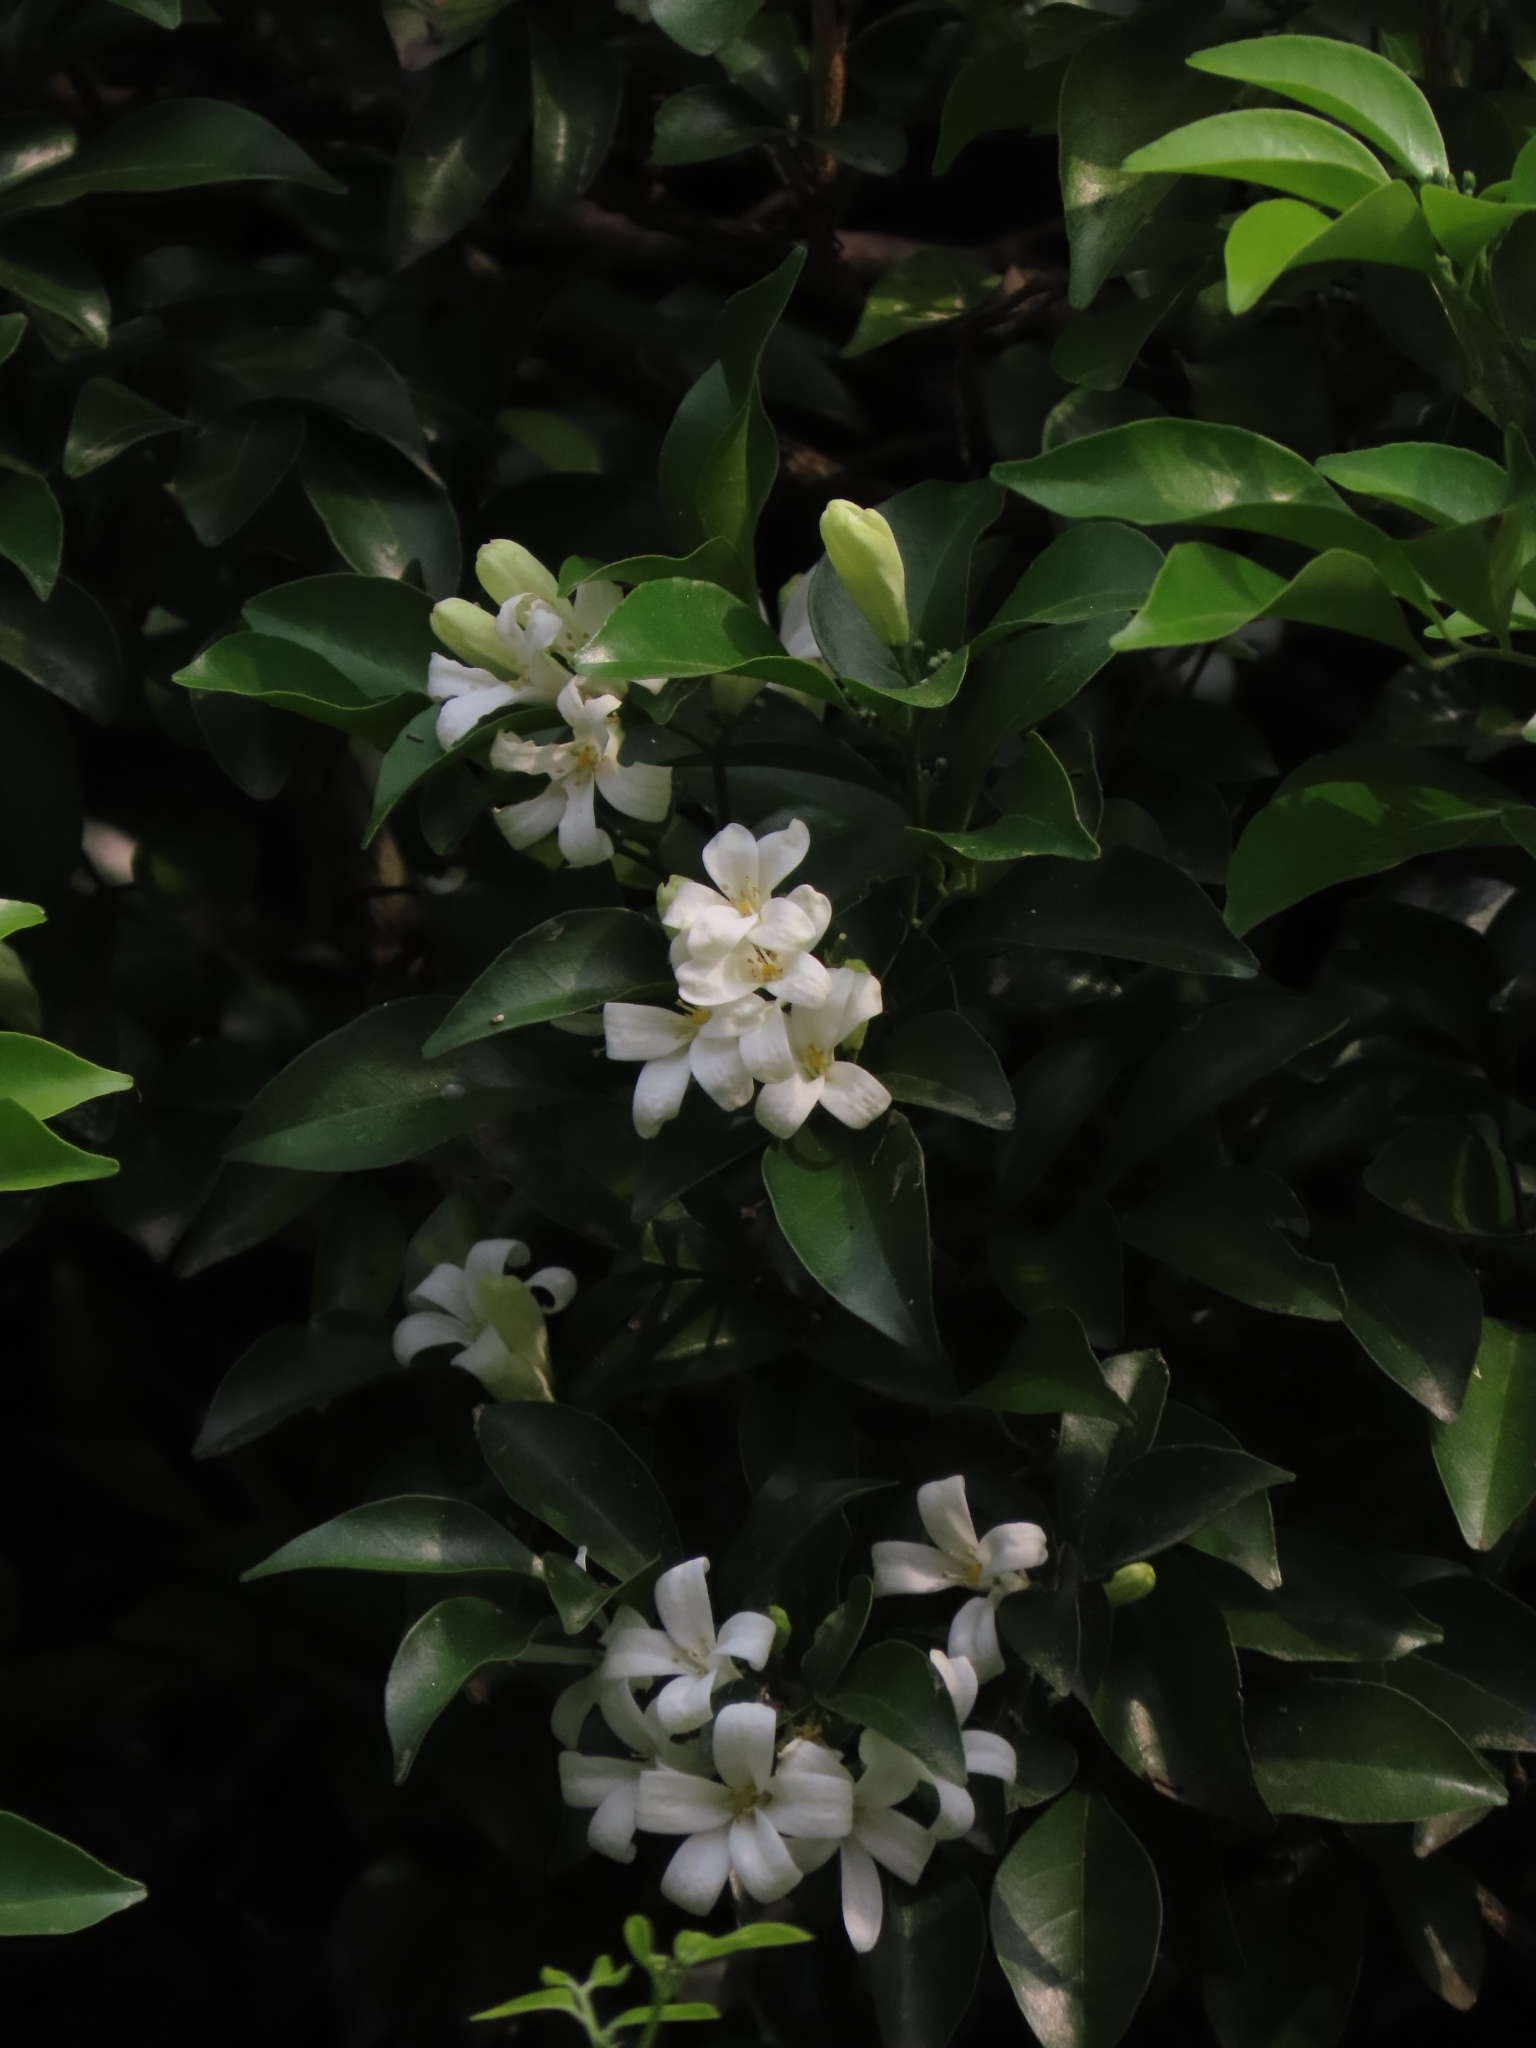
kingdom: Plantae
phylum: Tracheophyta
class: Magnoliopsida
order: Sapindales
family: Rutaceae
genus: Murraya
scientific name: Murraya paniculata
